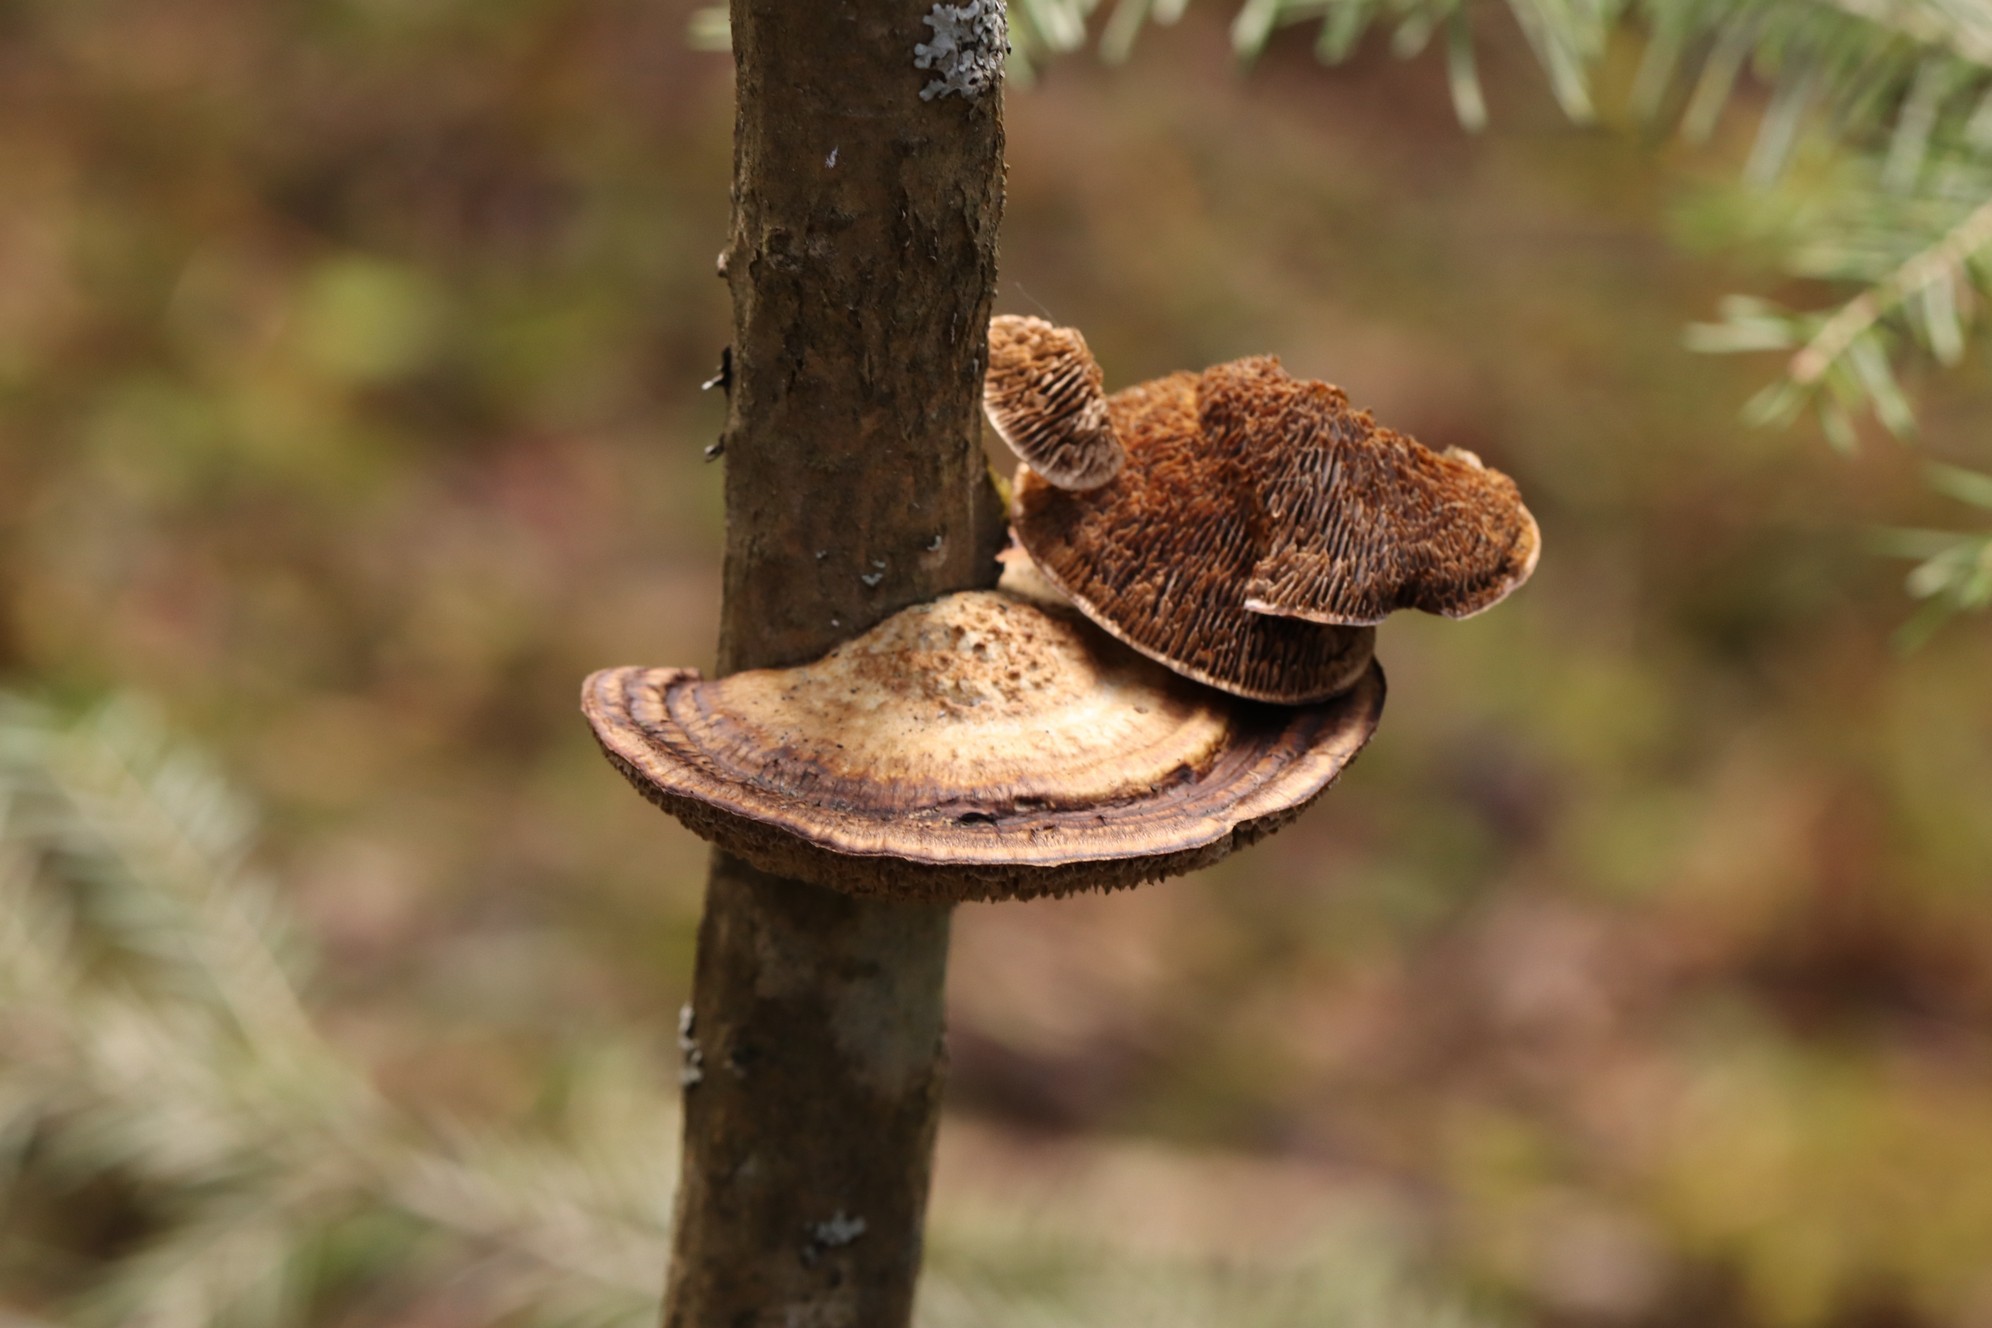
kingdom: Fungi
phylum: Basidiomycota
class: Agaricomycetes
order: Polyporales
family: Polyporaceae
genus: Daedaleopsis
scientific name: Daedaleopsis confragosa
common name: Blushing bracket
